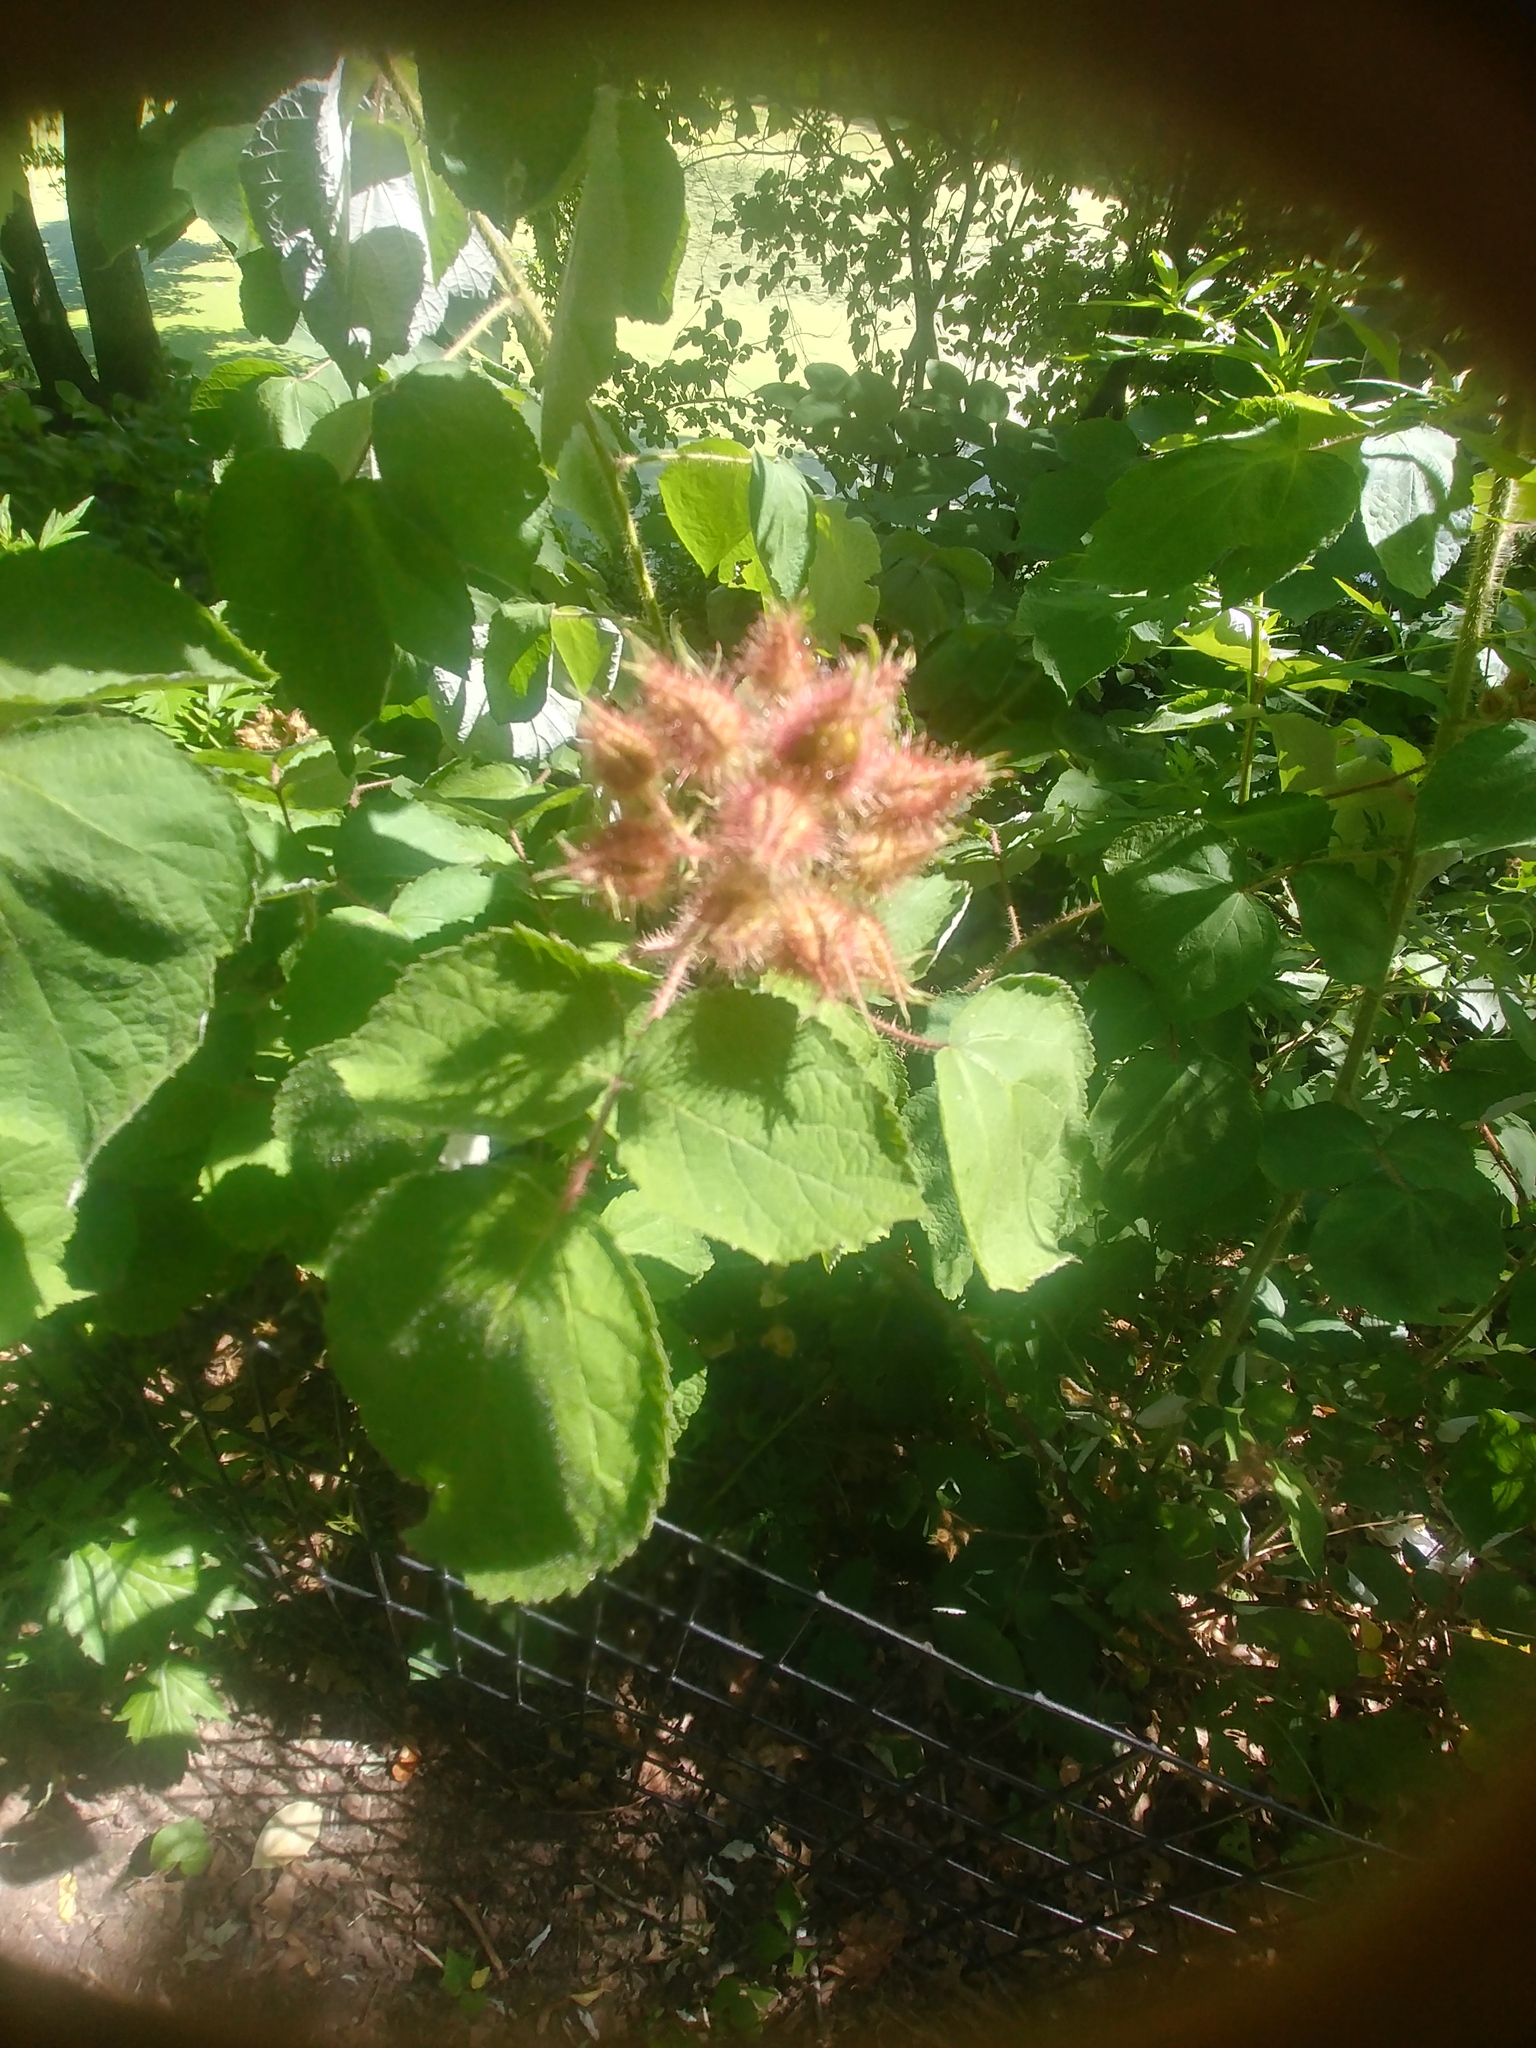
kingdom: Plantae
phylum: Tracheophyta
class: Magnoliopsida
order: Rosales
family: Rosaceae
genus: Rubus
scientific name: Rubus phoenicolasius
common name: Japanese wineberry
